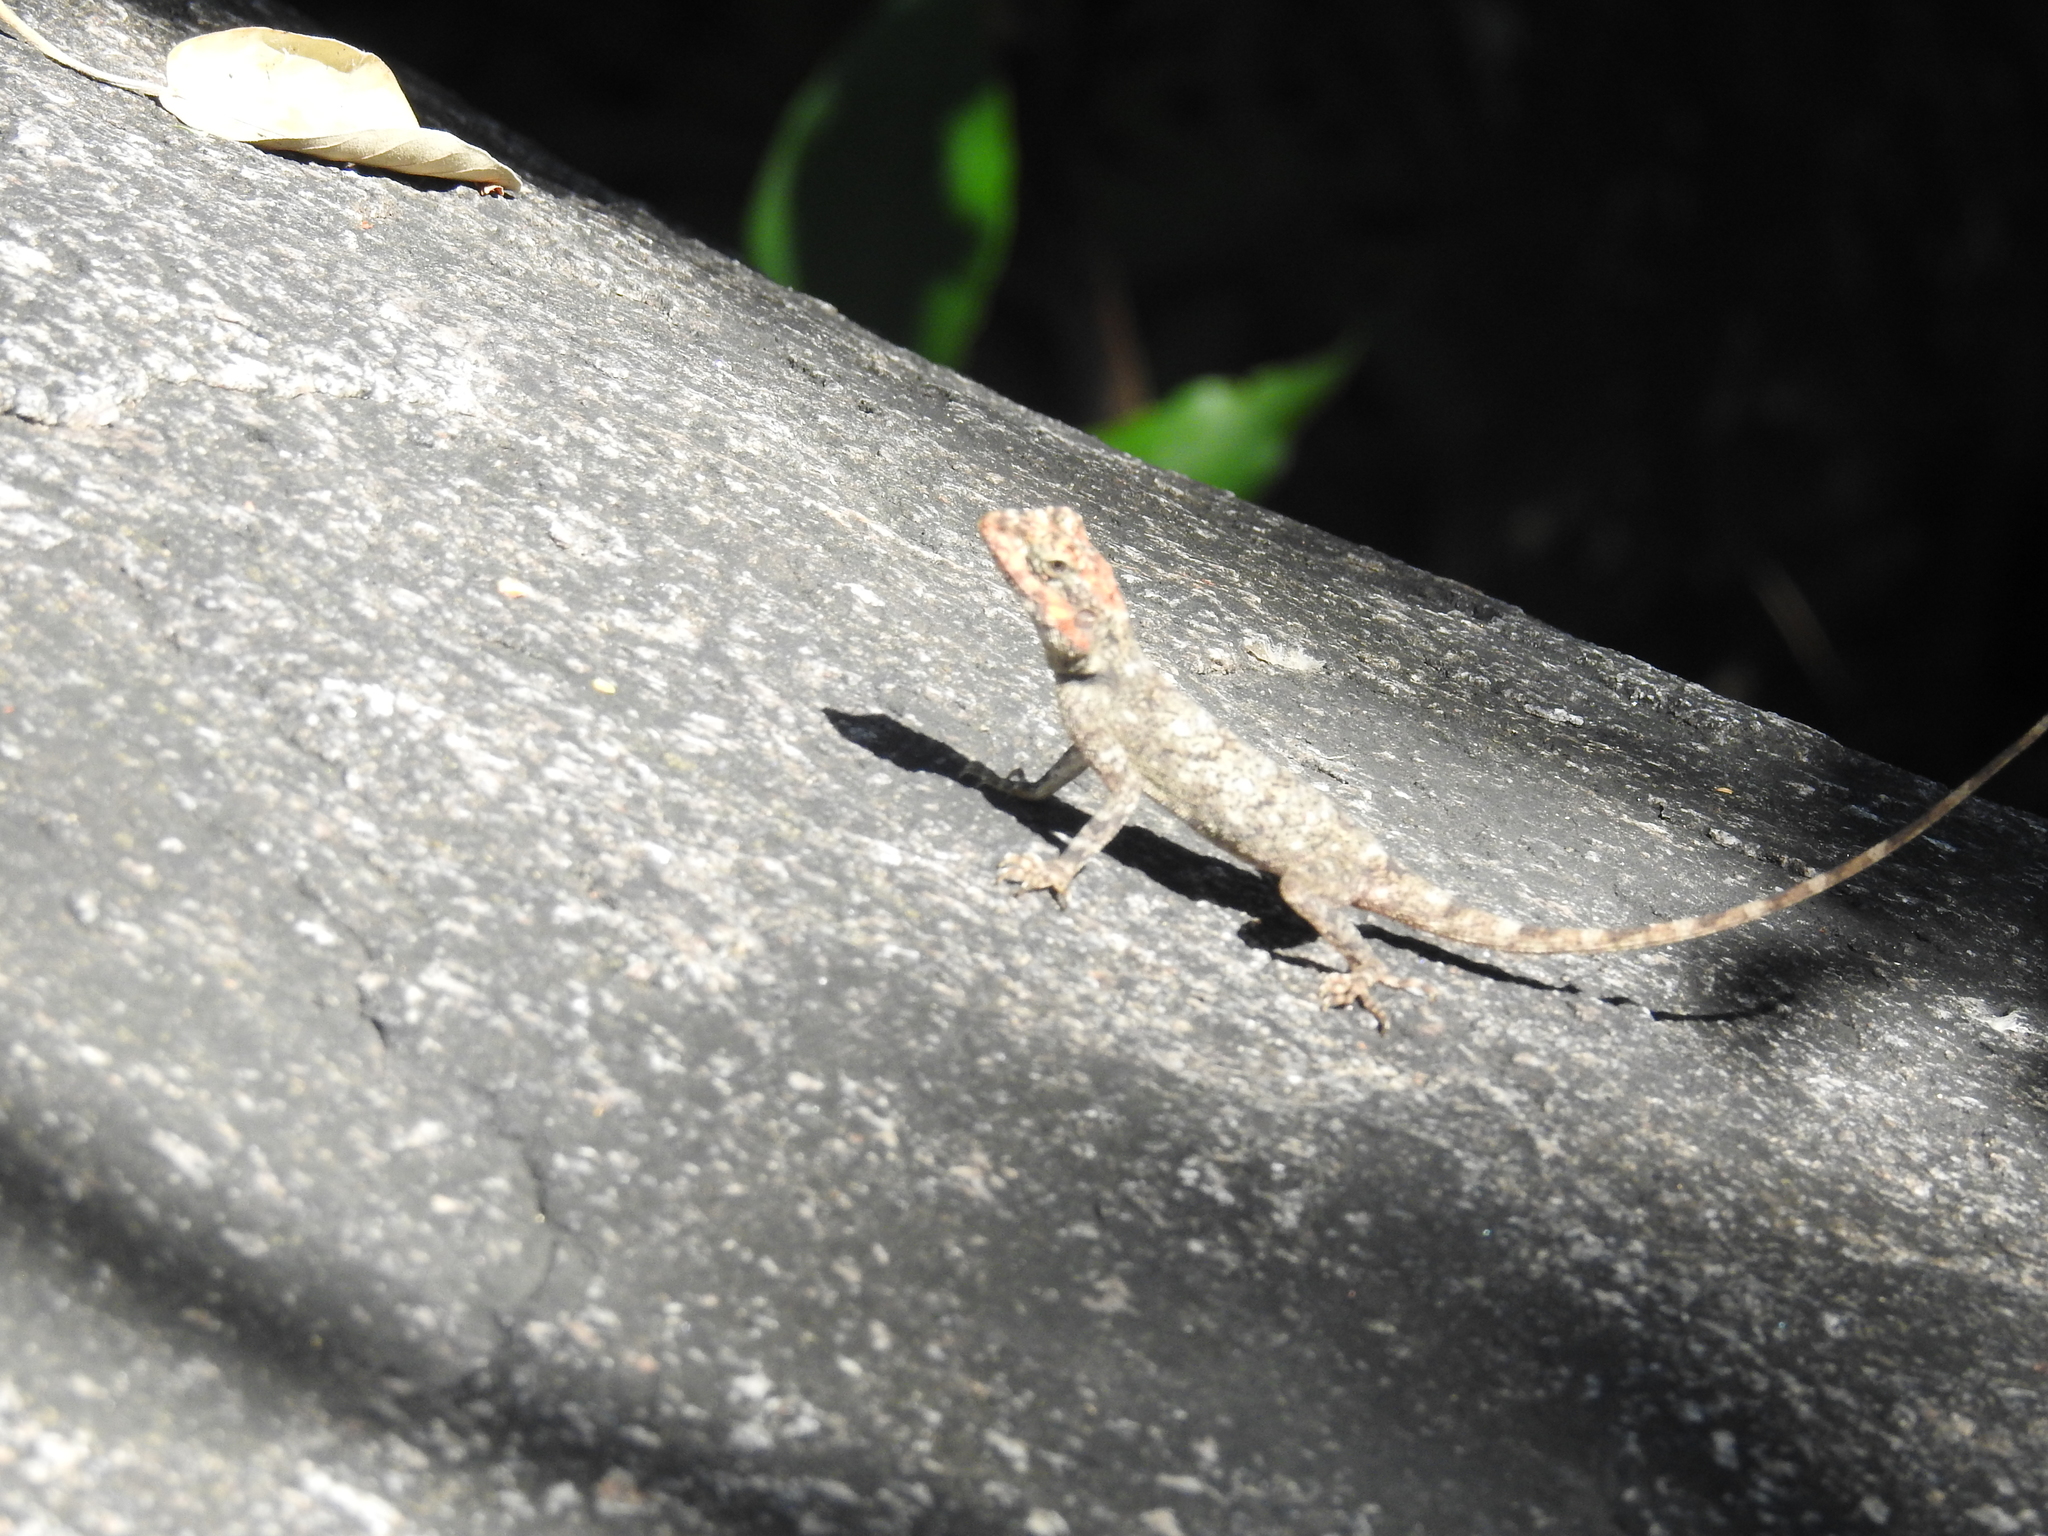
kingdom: Animalia
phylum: Chordata
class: Squamata
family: Agamidae
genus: Psammophilus
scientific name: Psammophilus dorsalis
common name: South indian rock agama
